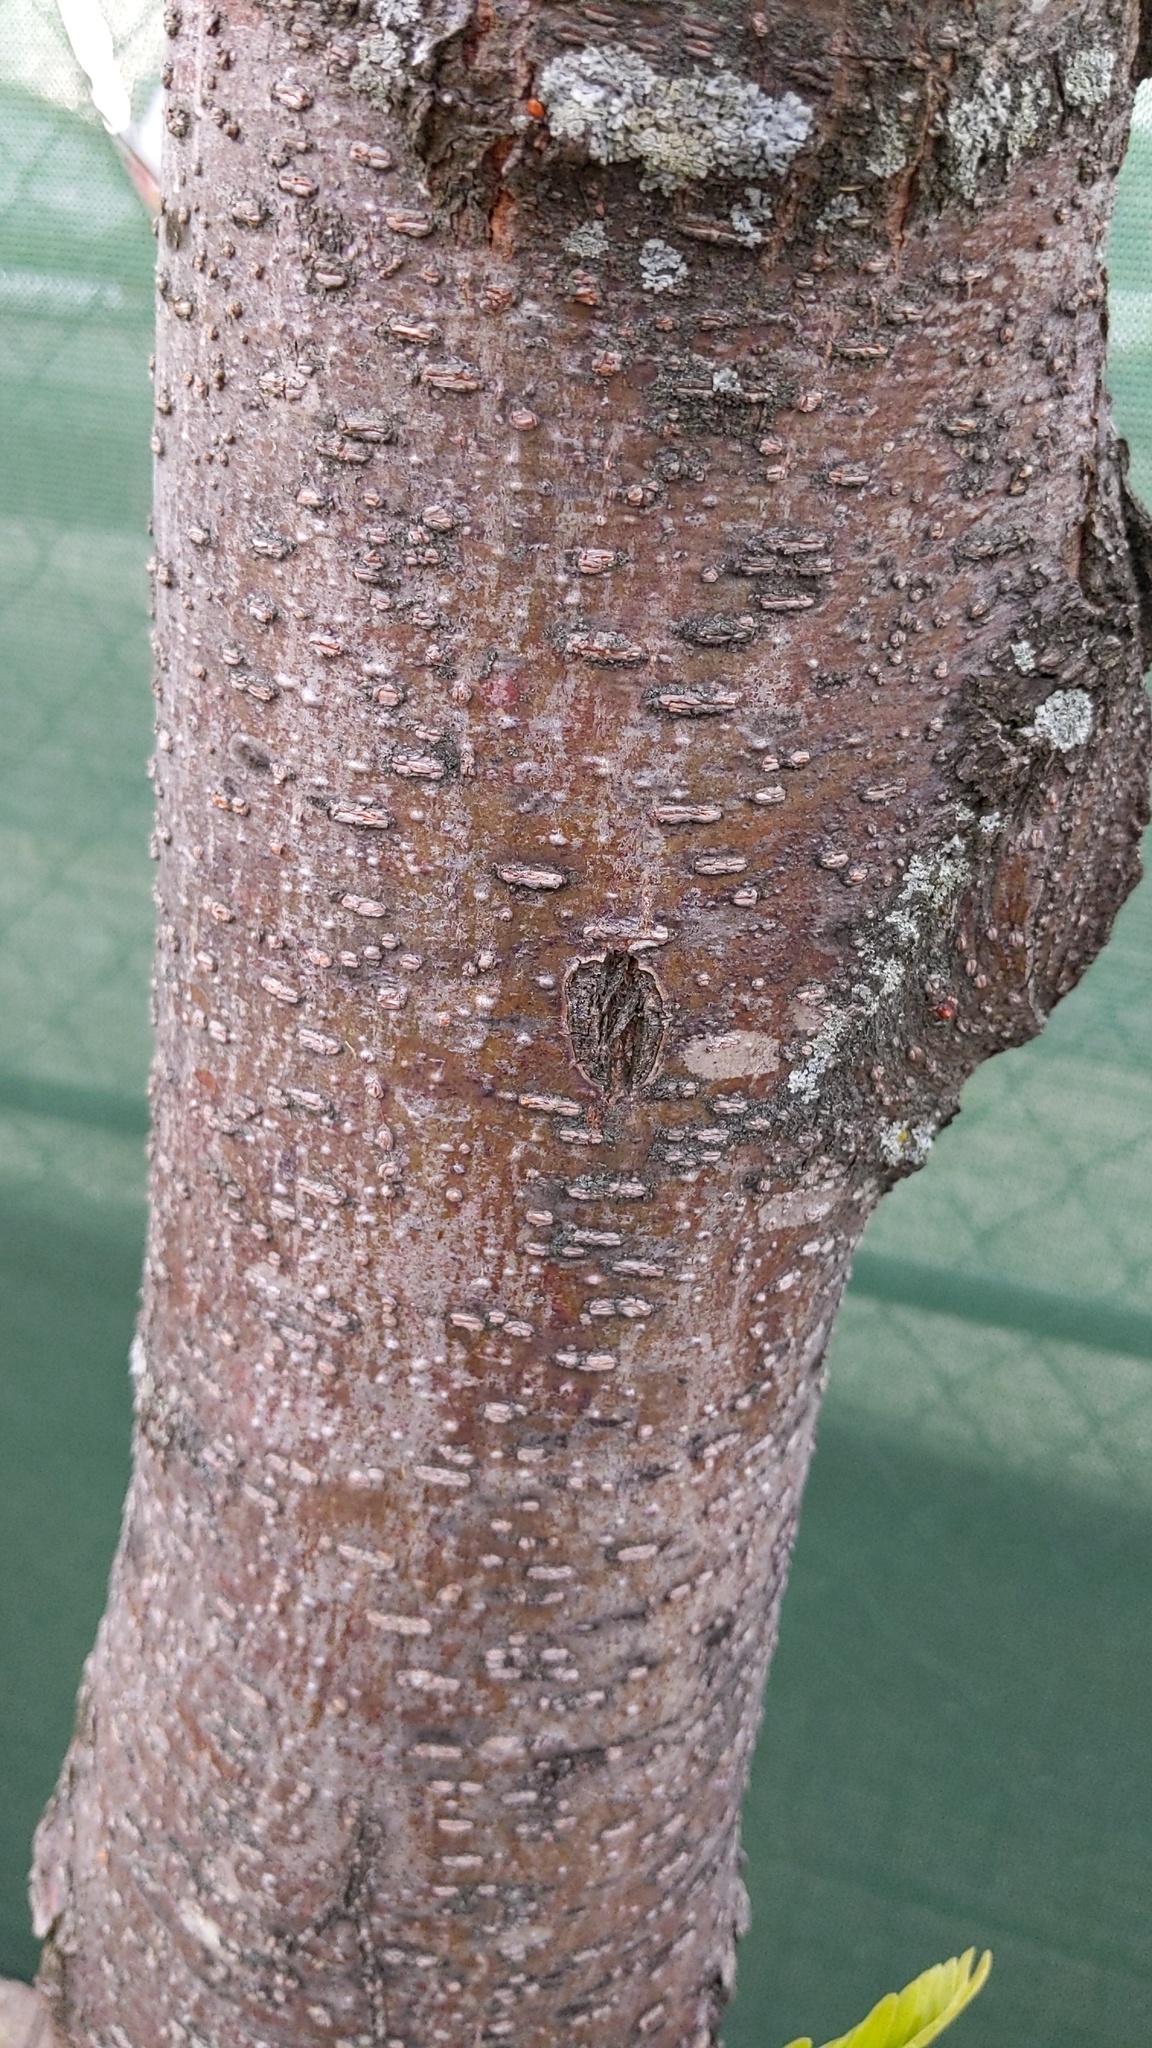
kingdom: Plantae
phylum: Tracheophyta
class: Magnoliopsida
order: Fabales
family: Fabaceae
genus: Gleditsia
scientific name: Gleditsia triacanthos
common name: Common honeylocust
